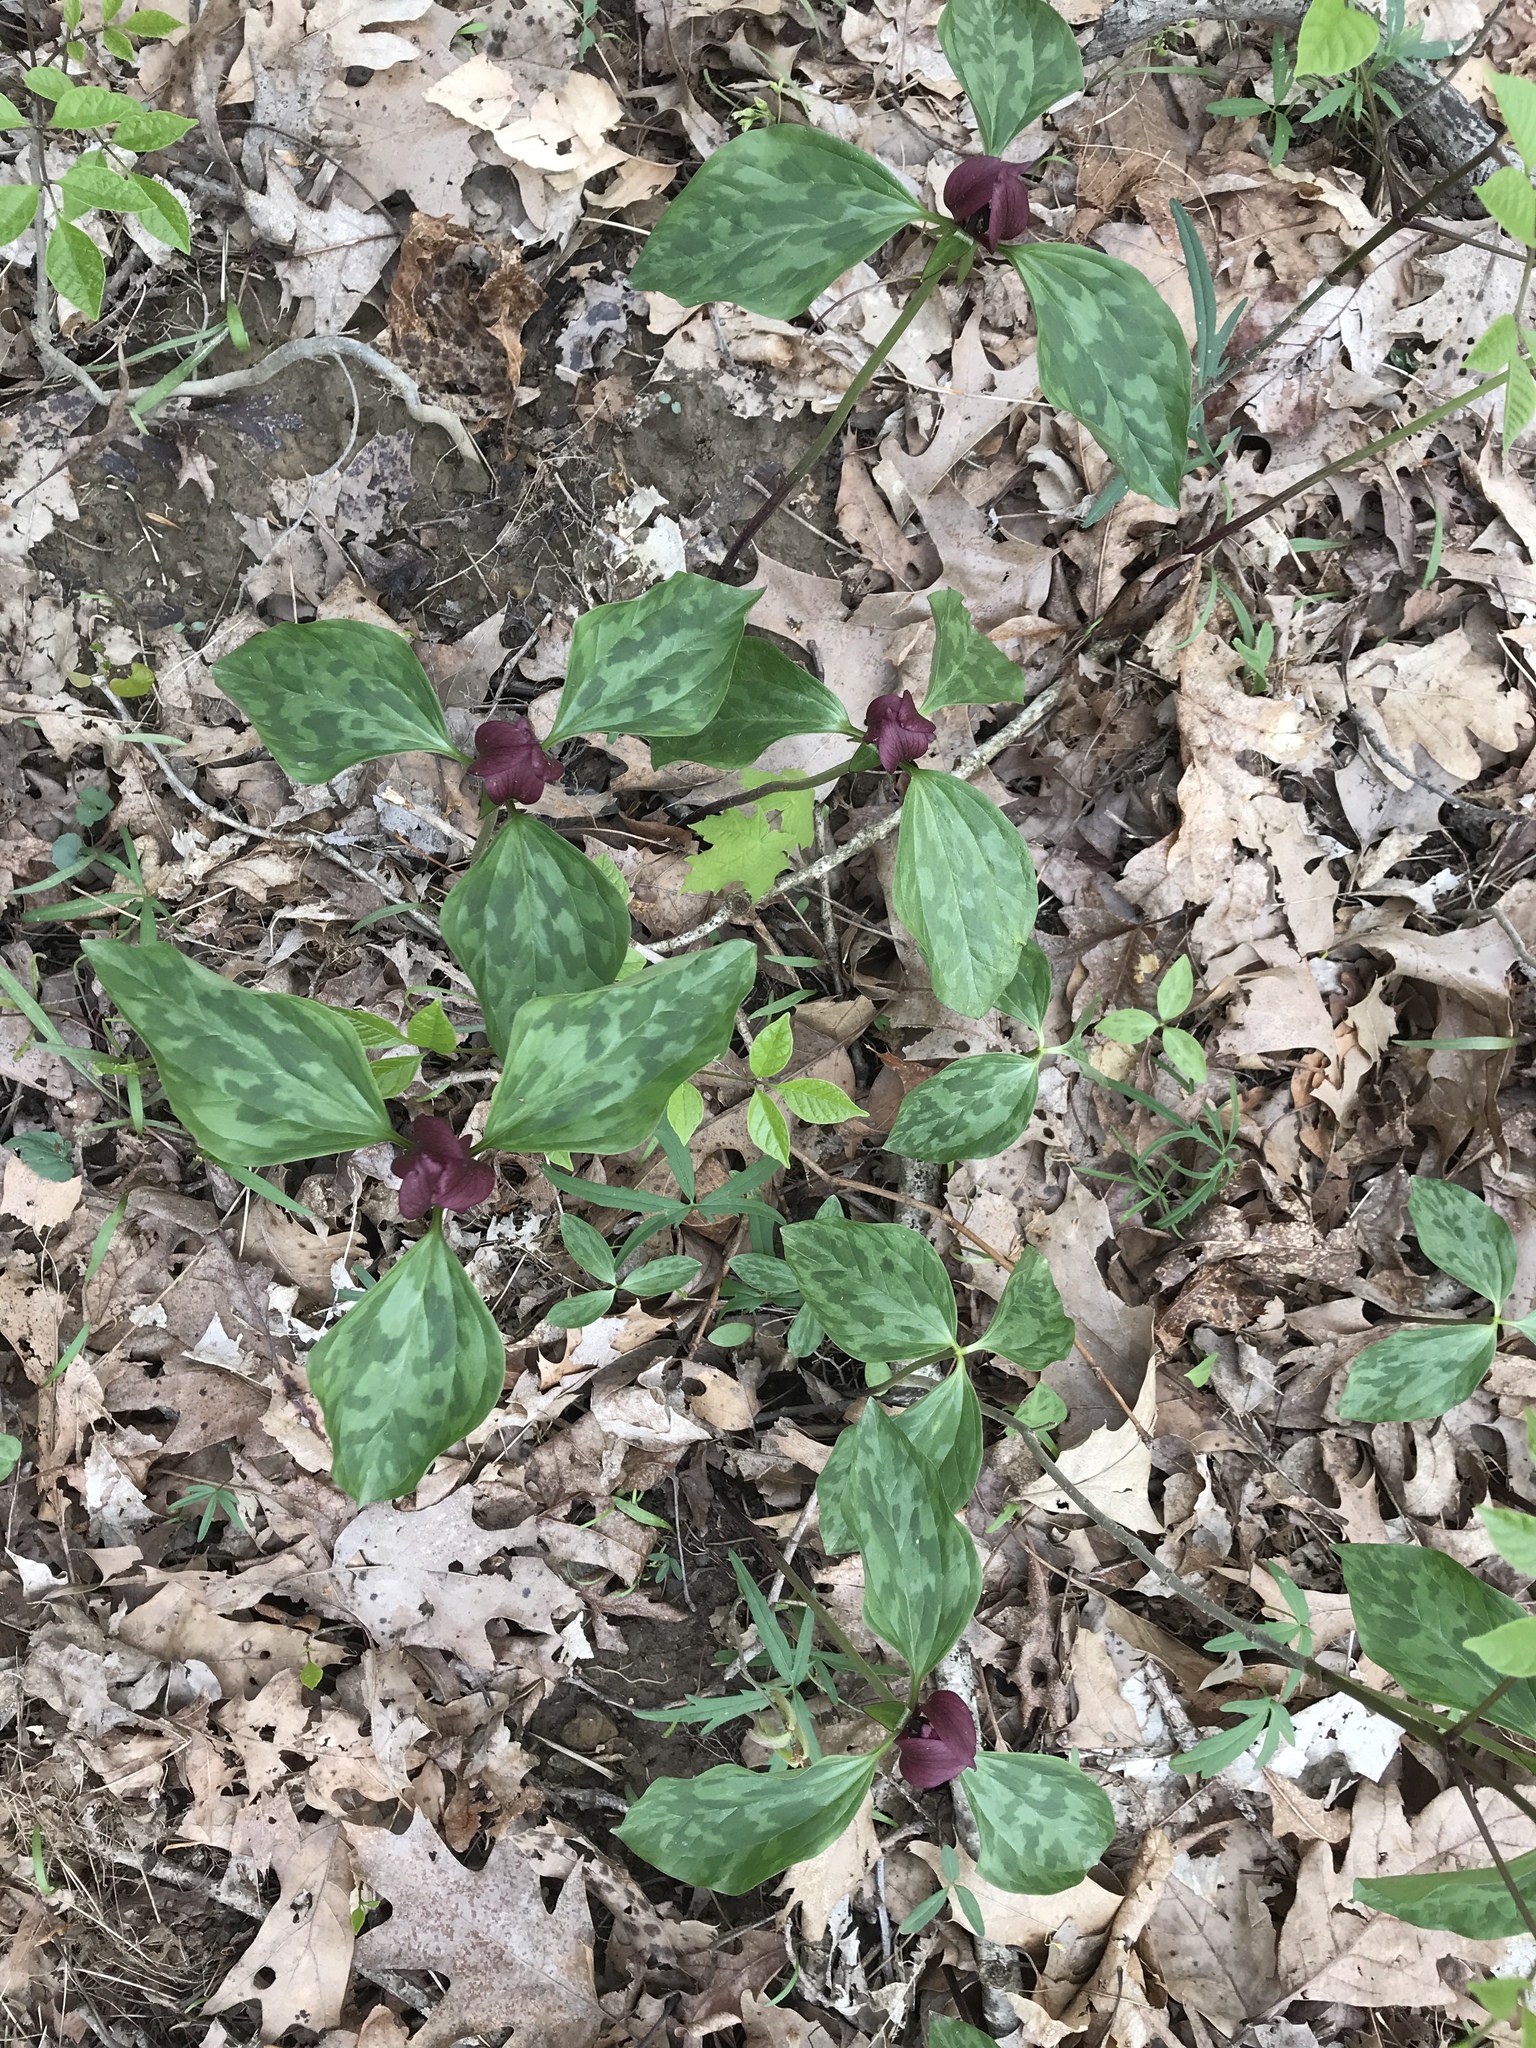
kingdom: Plantae
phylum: Tracheophyta
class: Liliopsida
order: Liliales
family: Melanthiaceae
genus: Trillium
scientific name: Trillium recurvatum
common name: Bloody butcher
